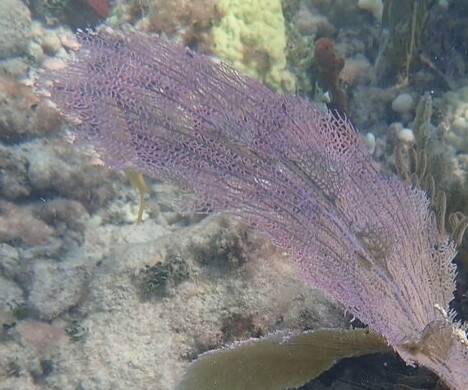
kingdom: Animalia
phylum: Cnidaria
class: Anthozoa
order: Malacalcyonacea
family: Gorgoniidae
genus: Gorgonia
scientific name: Gorgonia ventalina
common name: Common sea fan
